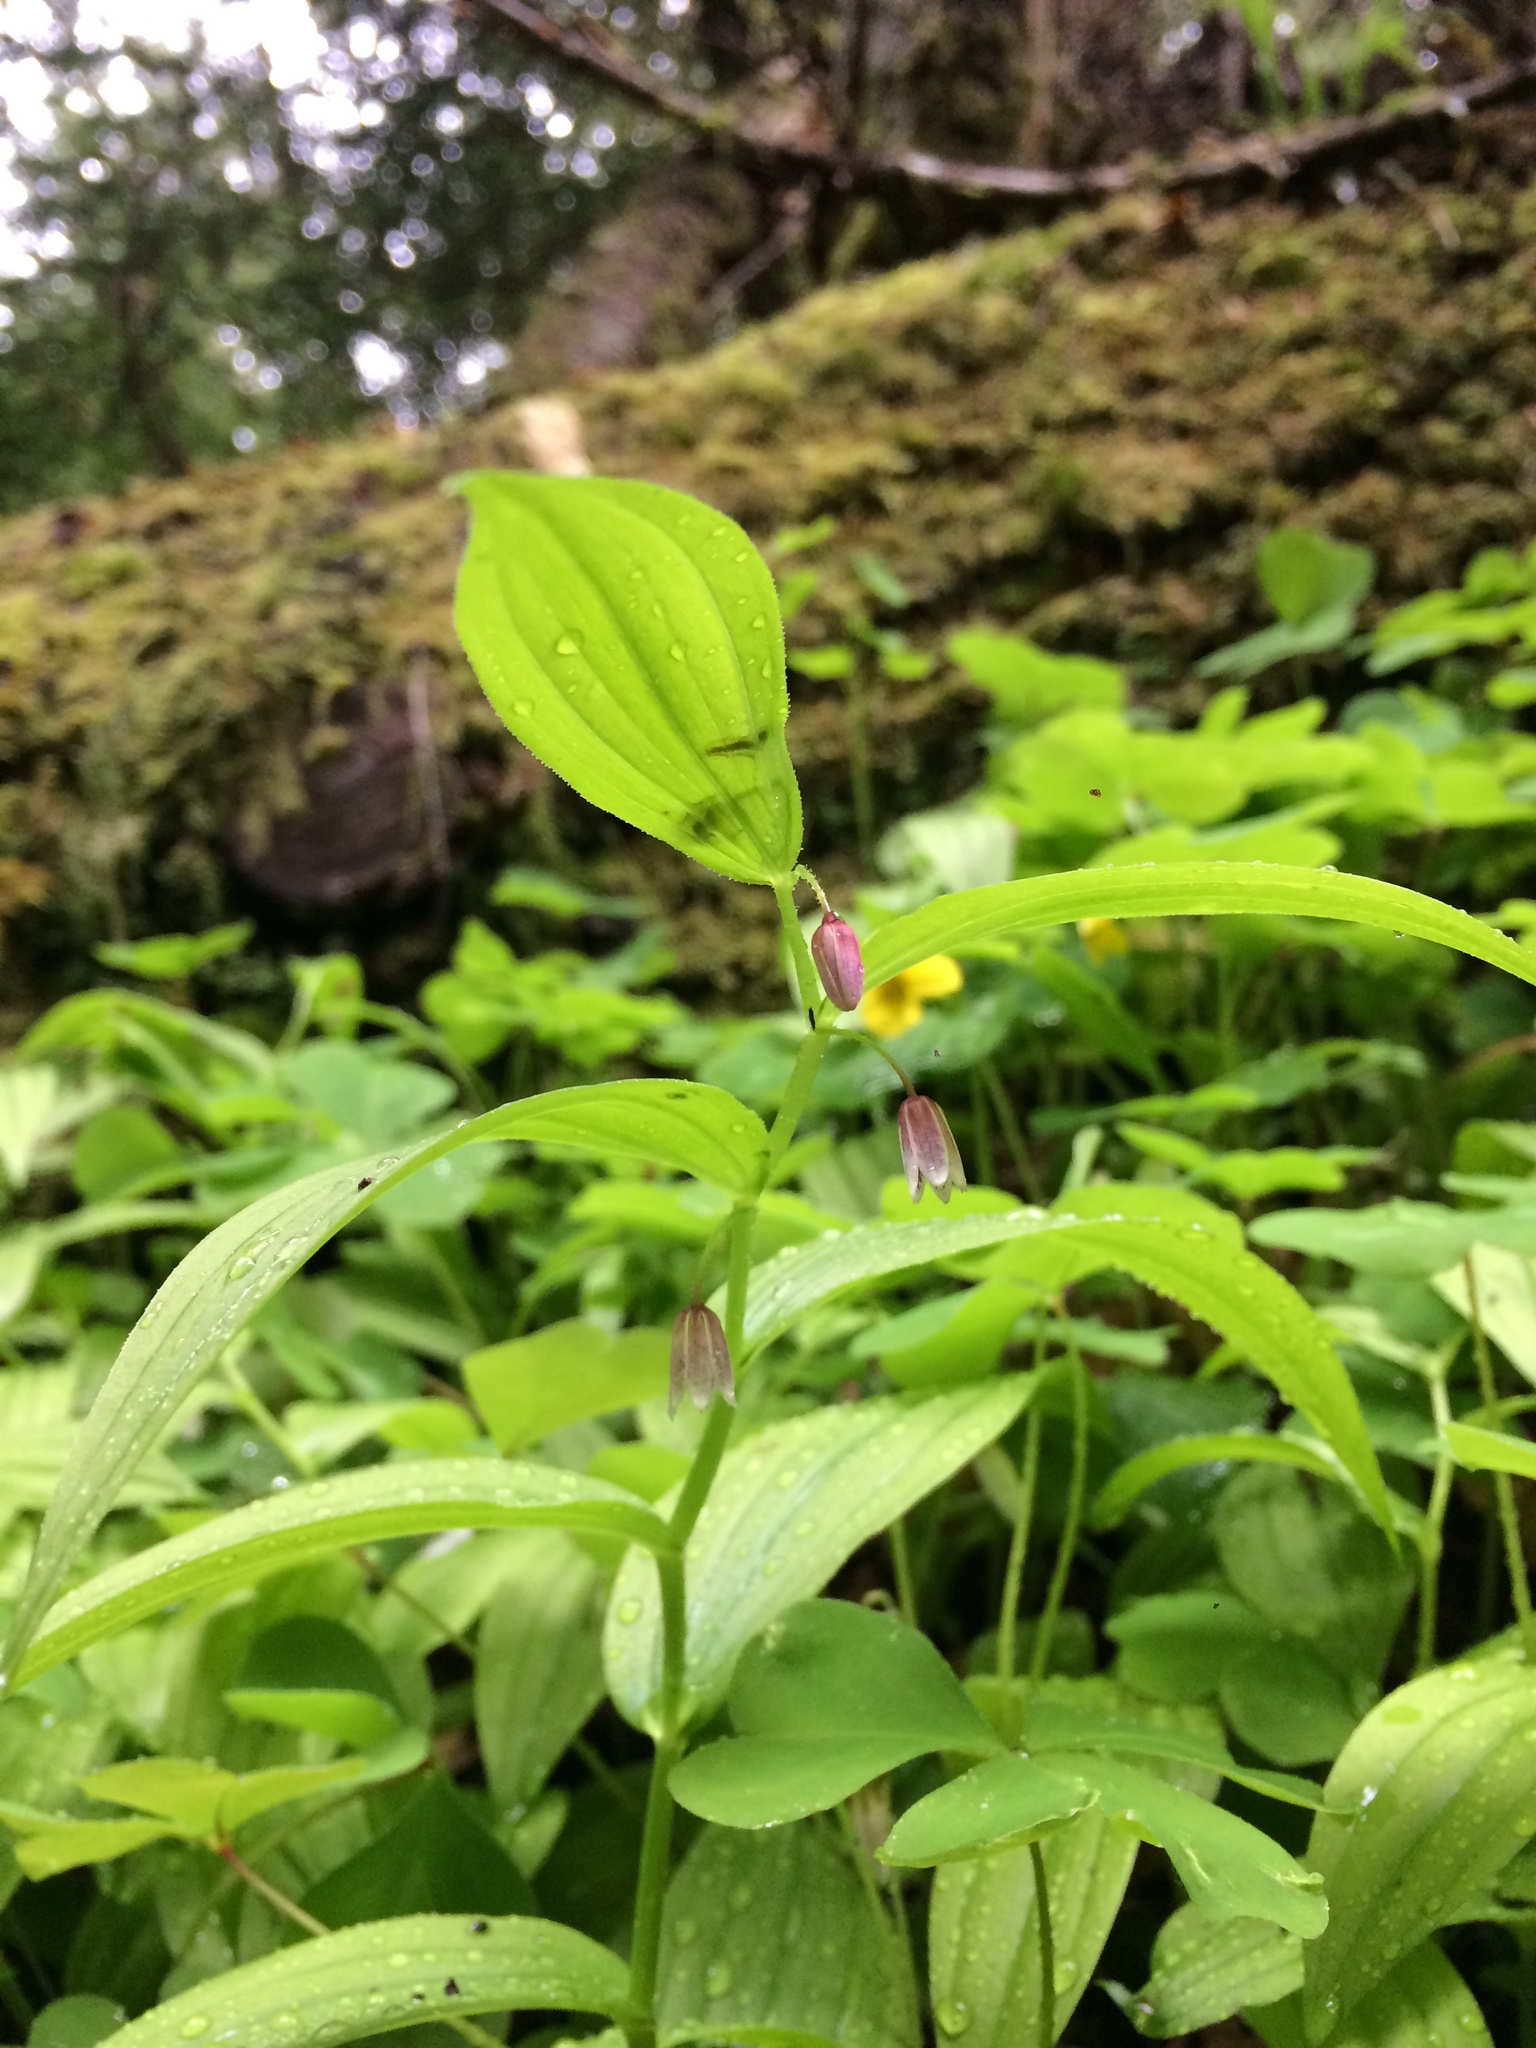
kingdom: Plantae
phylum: Tracheophyta
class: Liliopsida
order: Liliales
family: Liliaceae
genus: Streptopus
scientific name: Streptopus lanceolatus
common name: Rose mandarin
